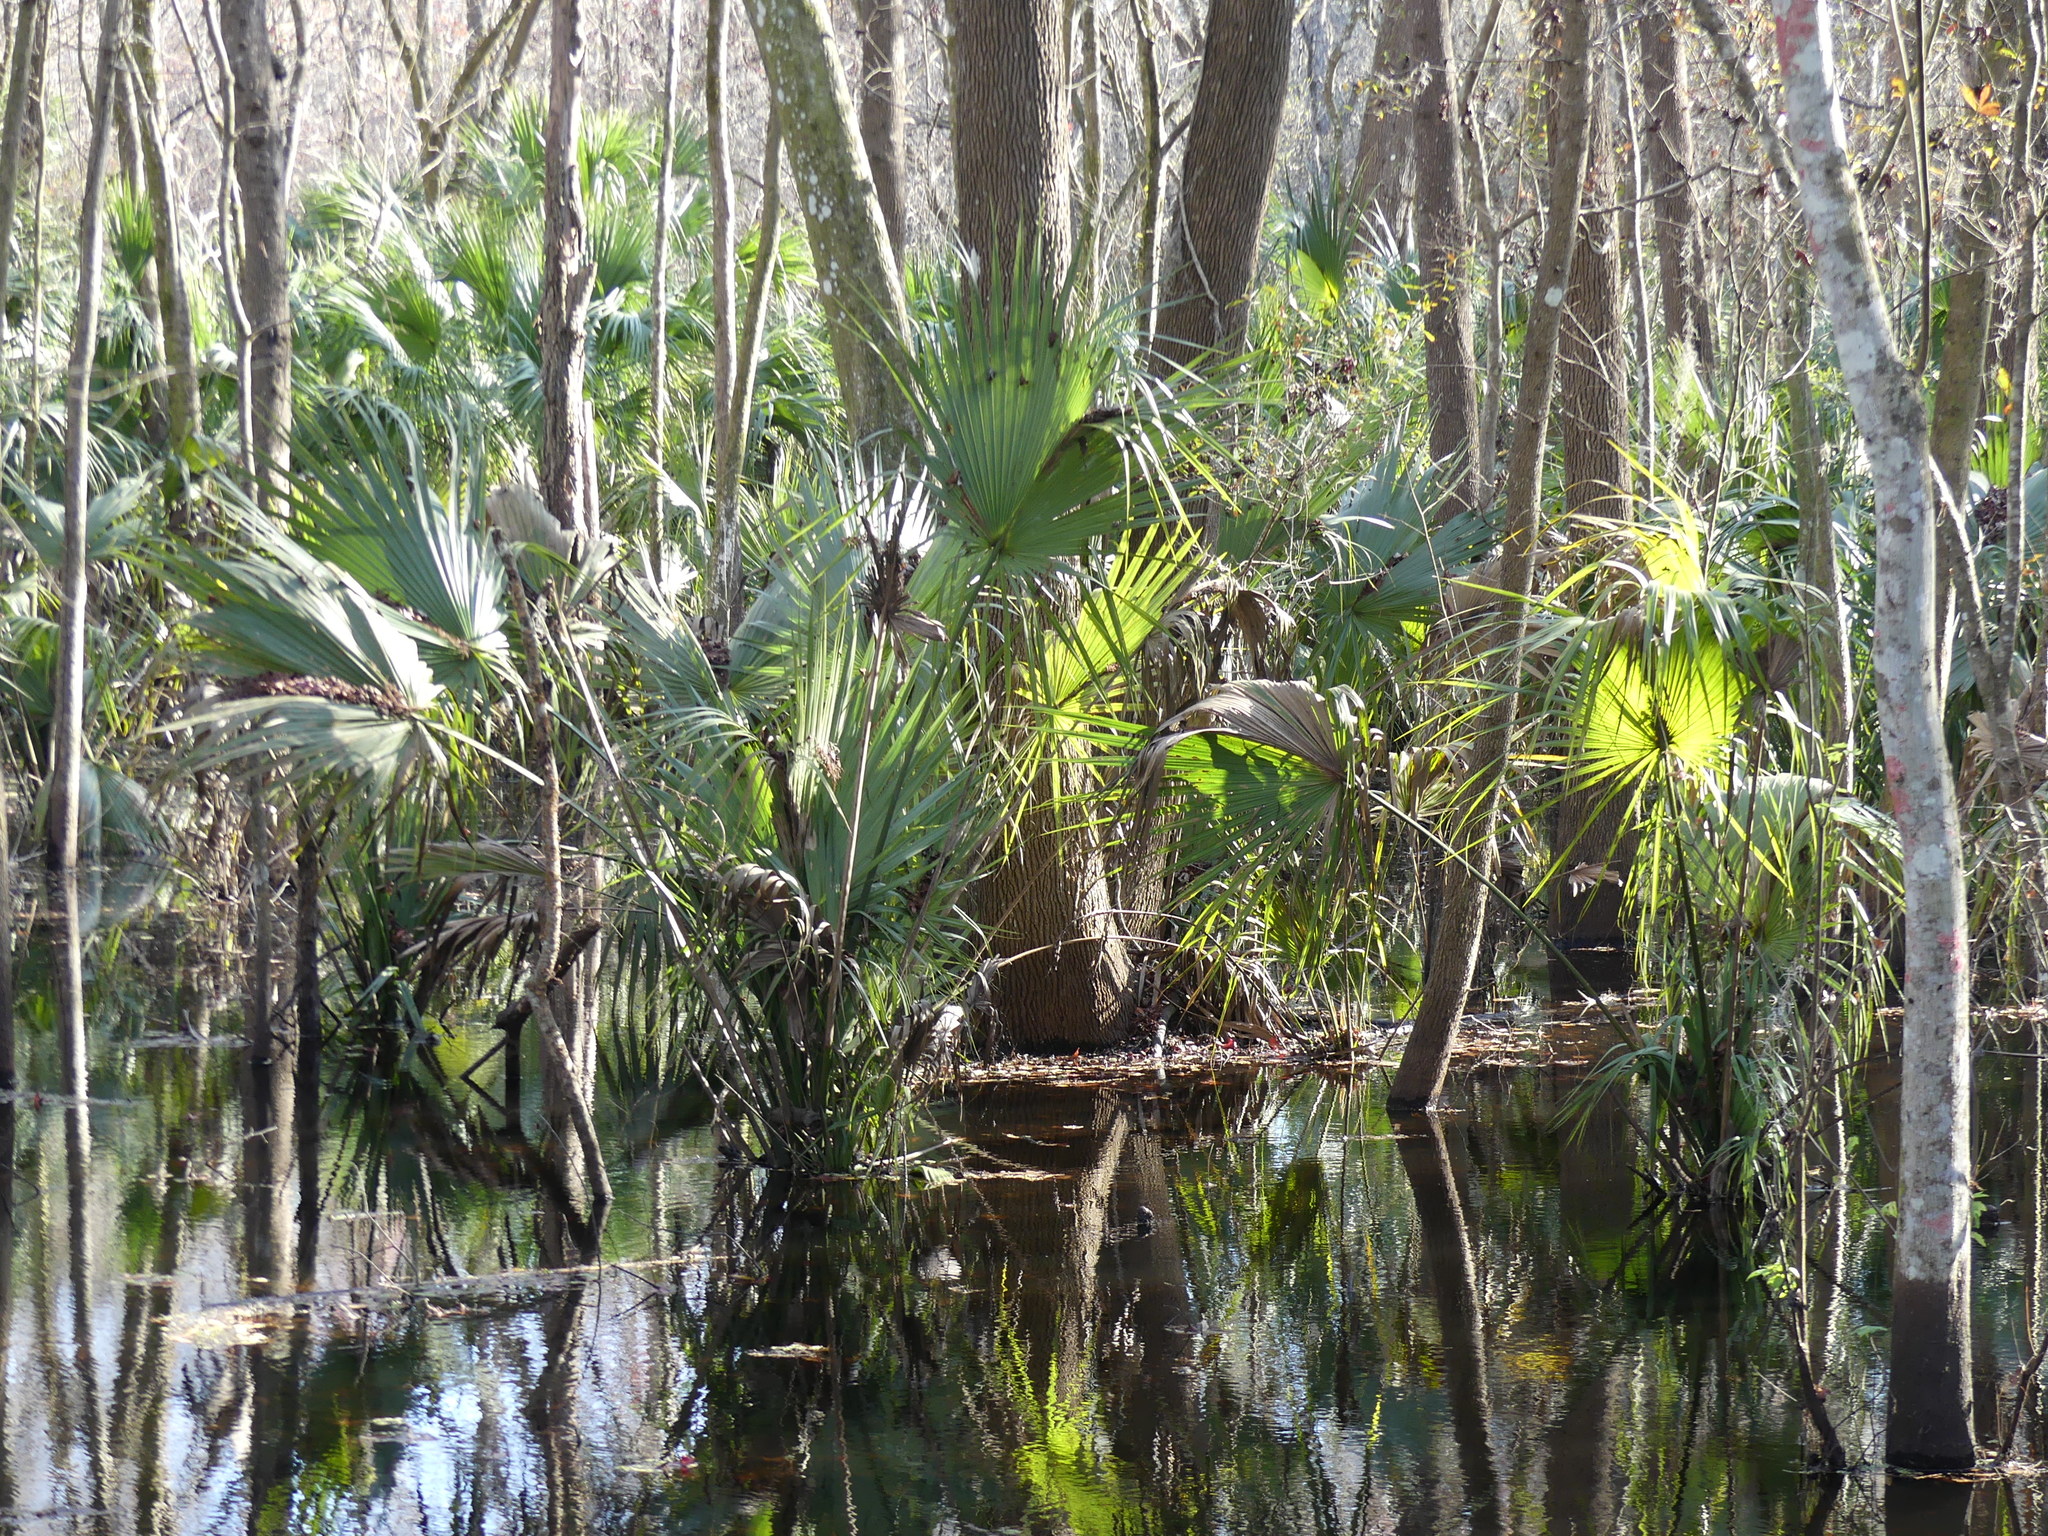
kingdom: Plantae
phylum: Tracheophyta
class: Liliopsida
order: Arecales
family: Arecaceae
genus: Sabal
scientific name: Sabal palmetto
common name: Blue palmetto
